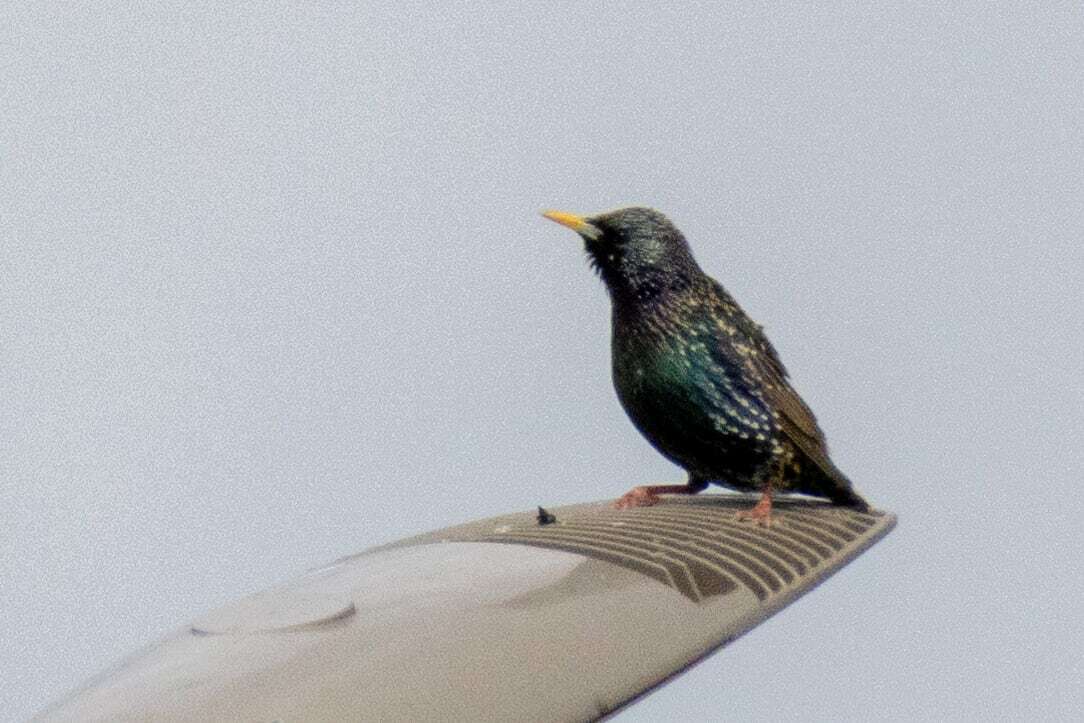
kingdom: Animalia
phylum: Chordata
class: Aves
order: Passeriformes
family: Sturnidae
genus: Sturnus
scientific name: Sturnus vulgaris
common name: Common starling
